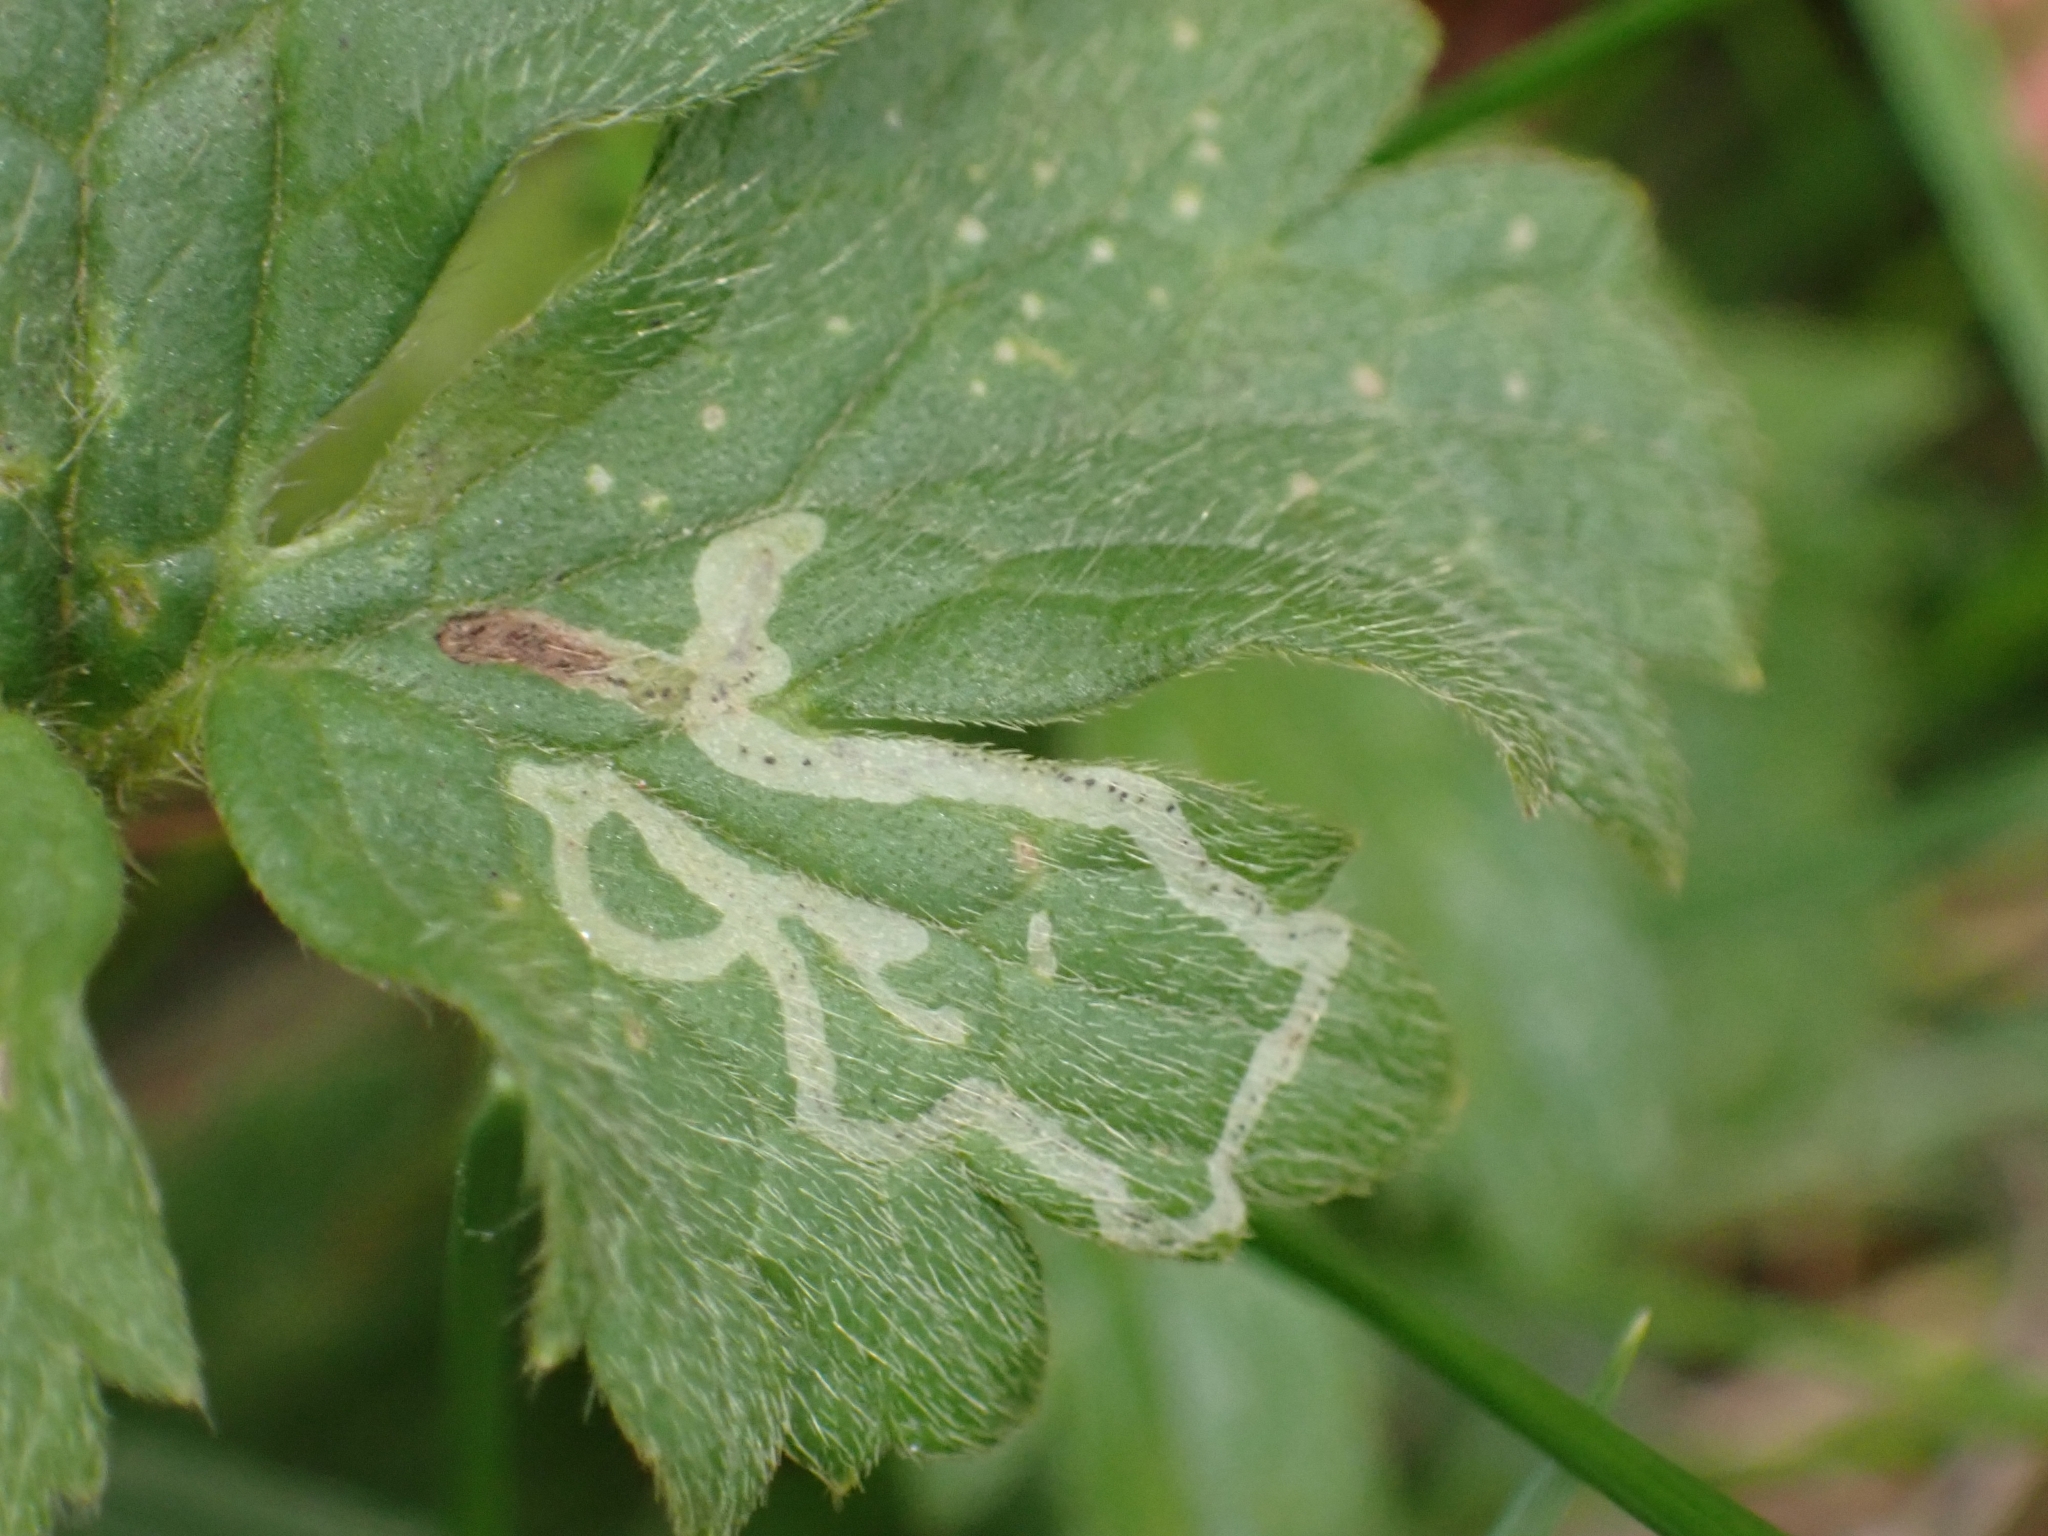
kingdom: Animalia
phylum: Arthropoda
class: Insecta
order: Diptera
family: Agromyzidae
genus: Phytomyza
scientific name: Phytomyza ranunculi
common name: Leaf-miner fly
